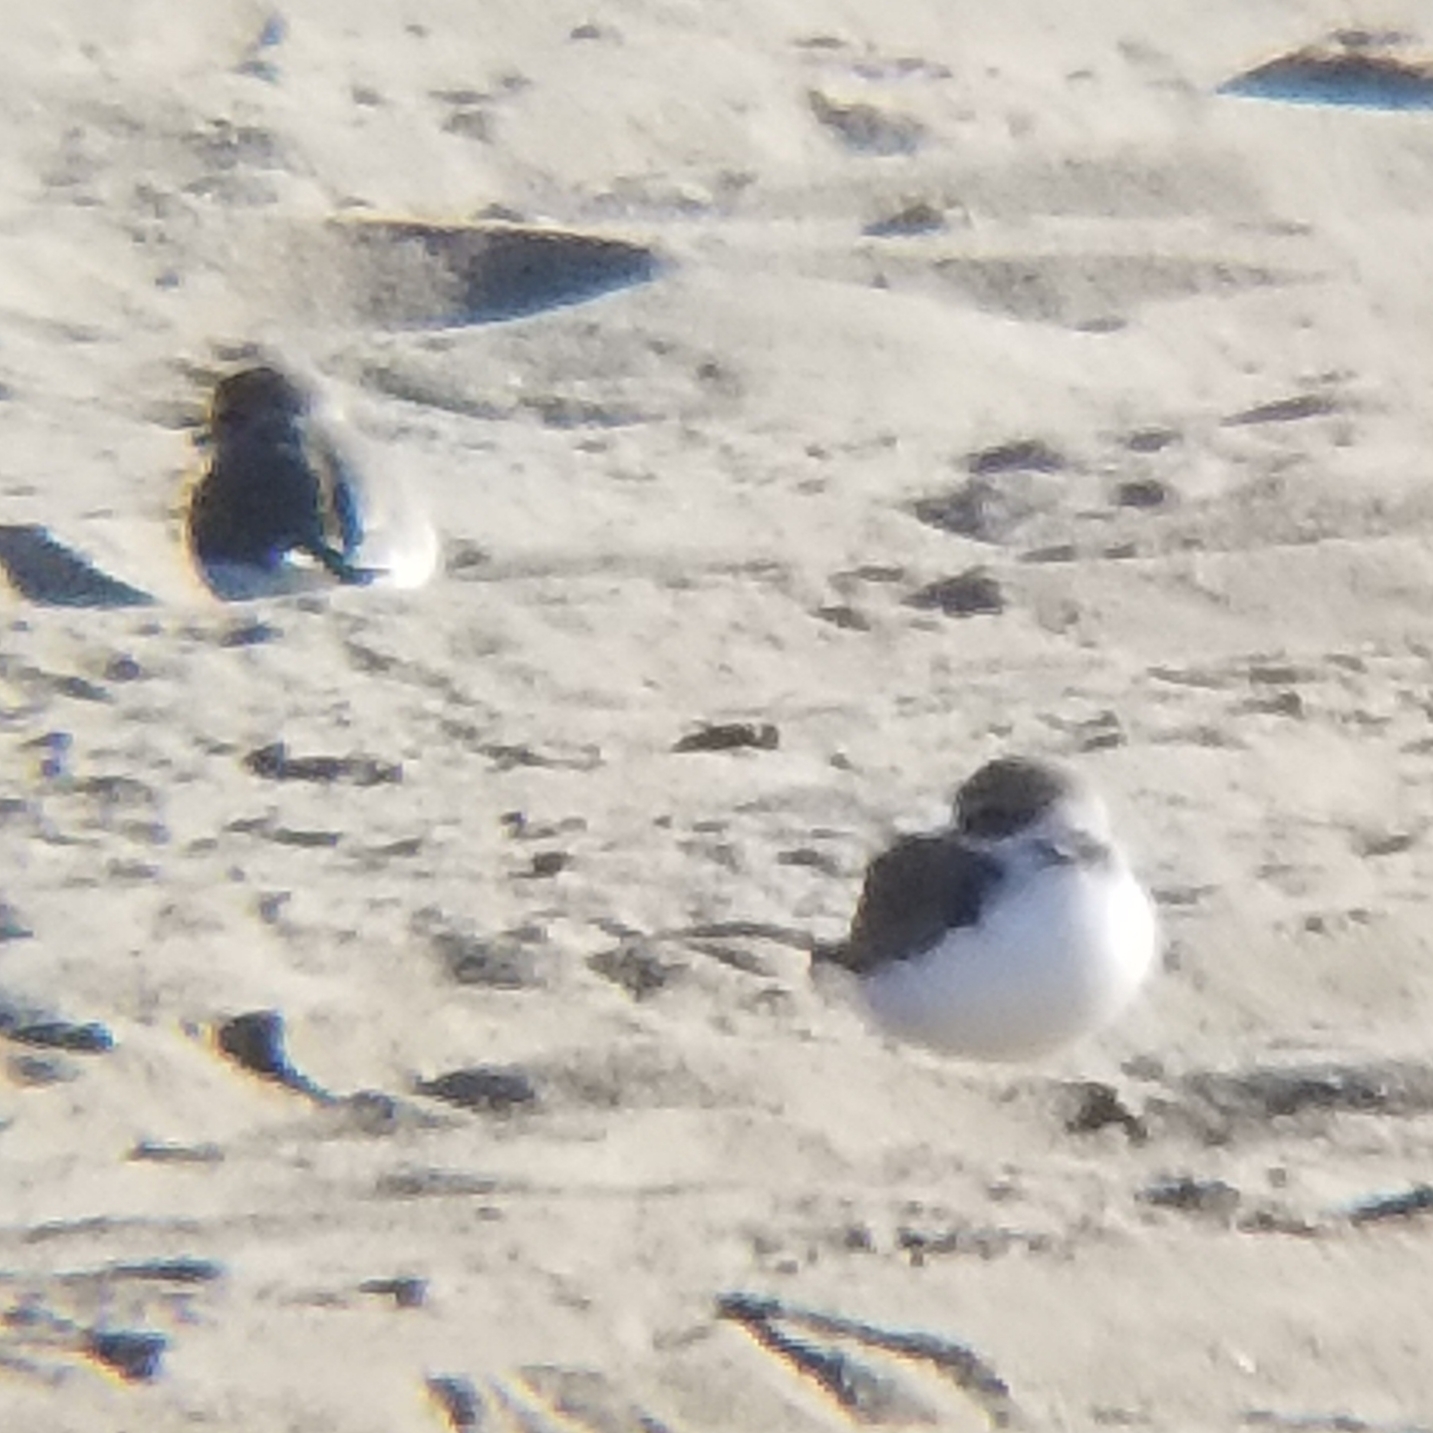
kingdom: Animalia
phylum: Chordata
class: Aves
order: Charadriiformes
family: Charadriidae
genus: Anarhynchus
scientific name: Anarhynchus
